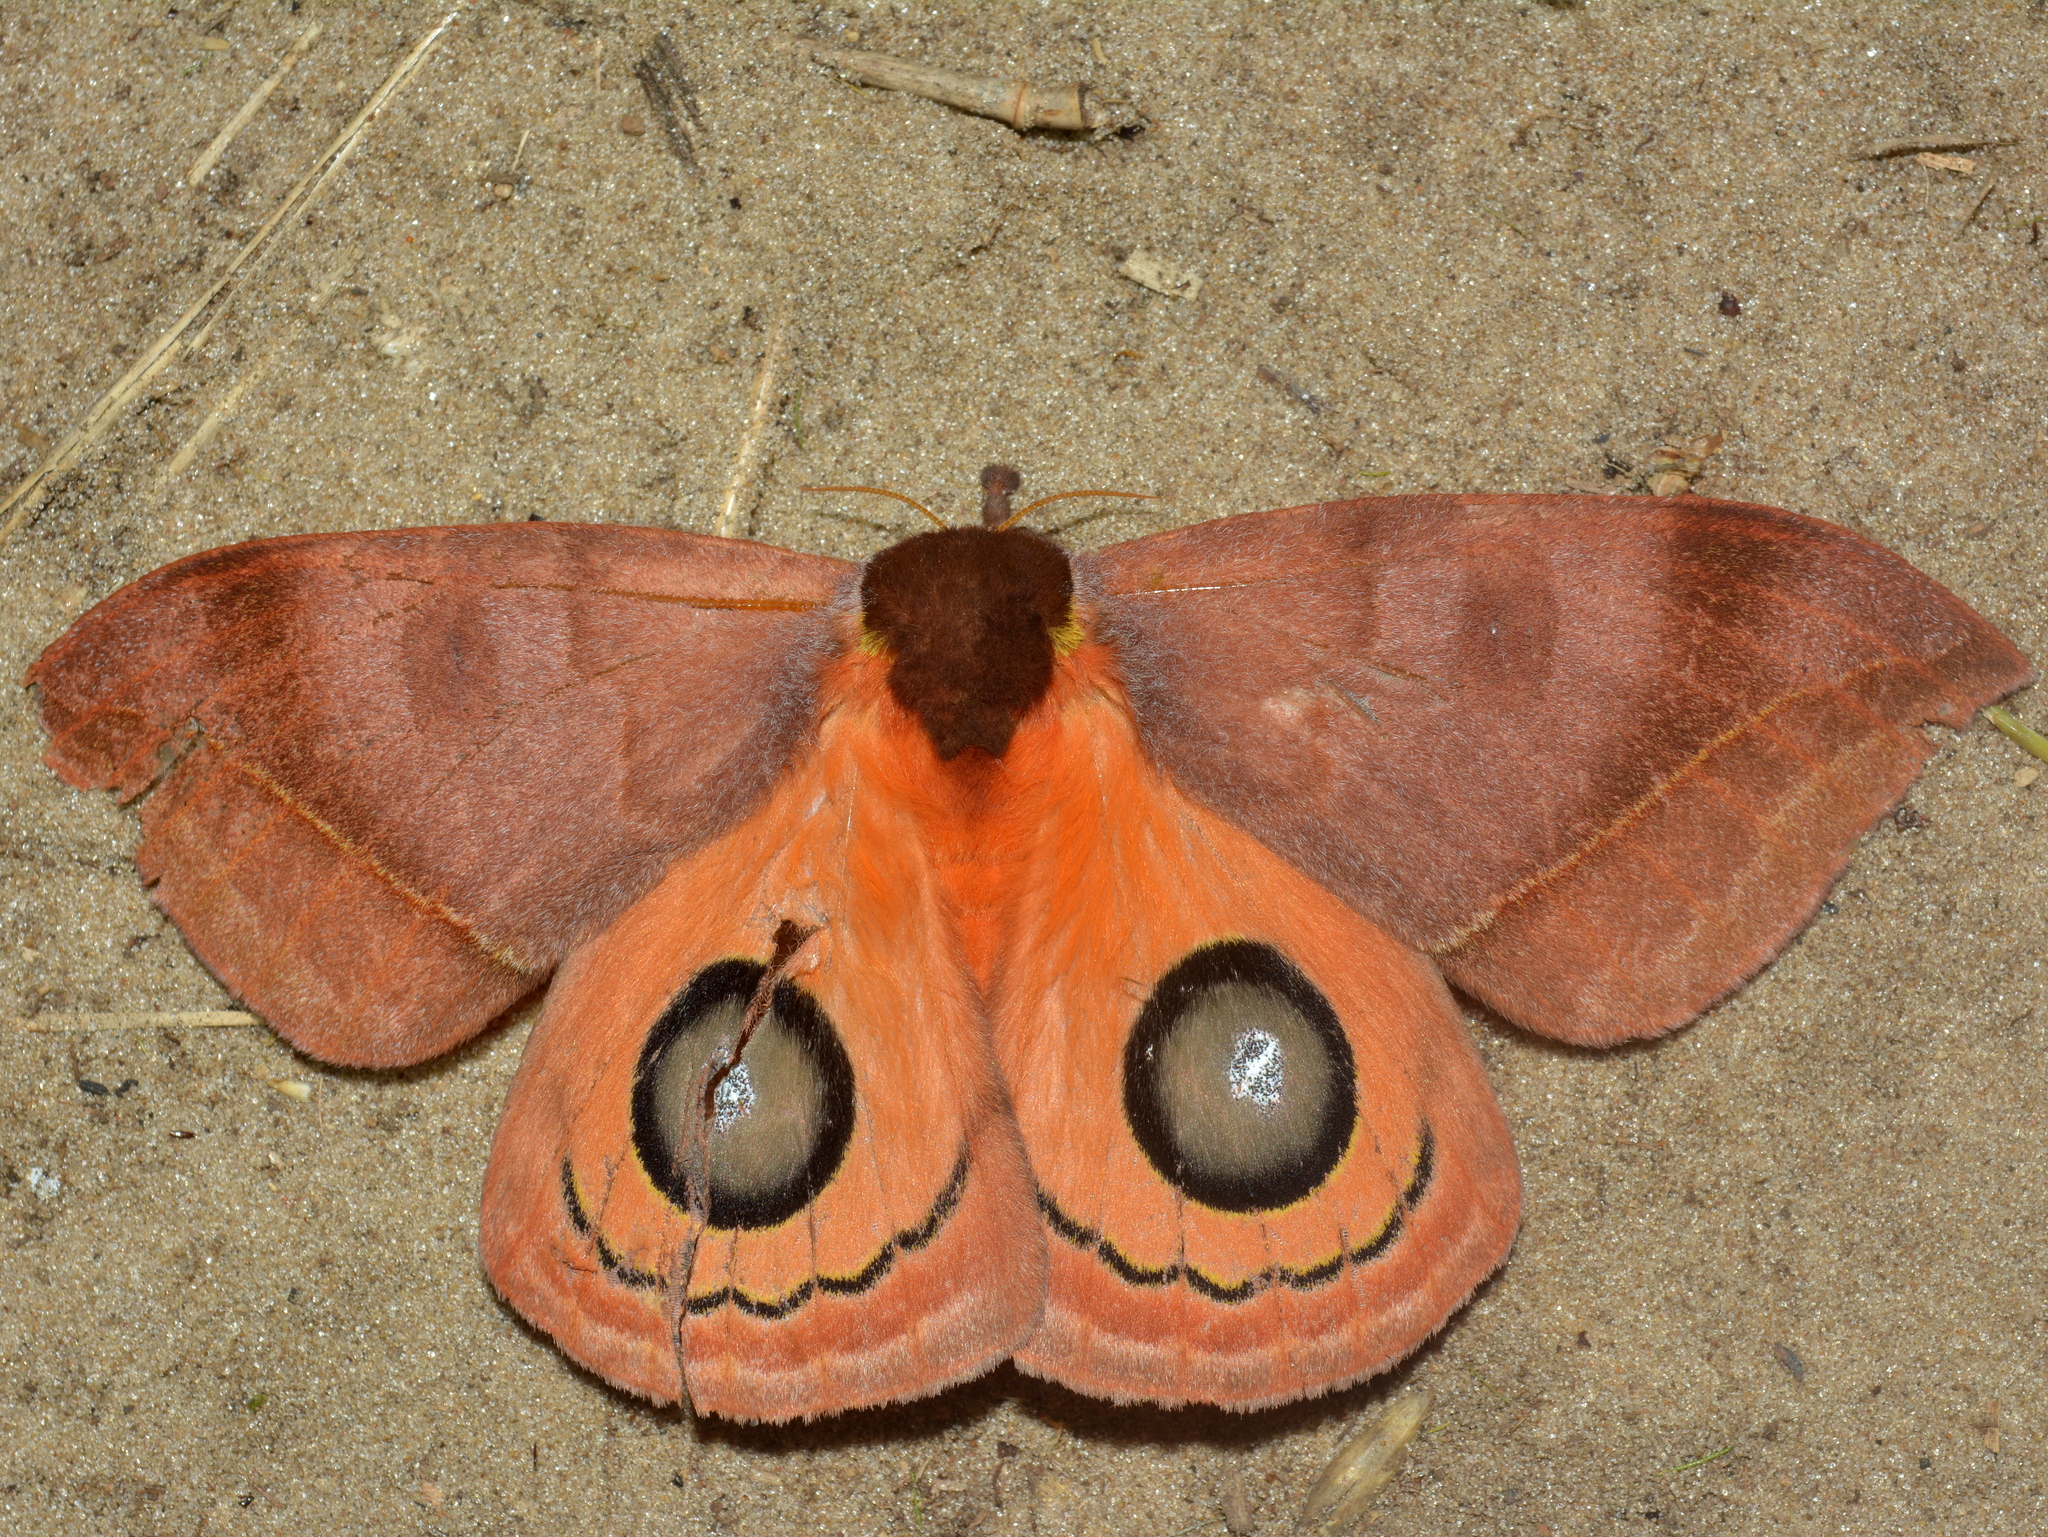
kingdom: Animalia
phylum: Arthropoda
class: Insecta
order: Lepidoptera
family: Saturniidae
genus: Automeris
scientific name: Automeris illustris
